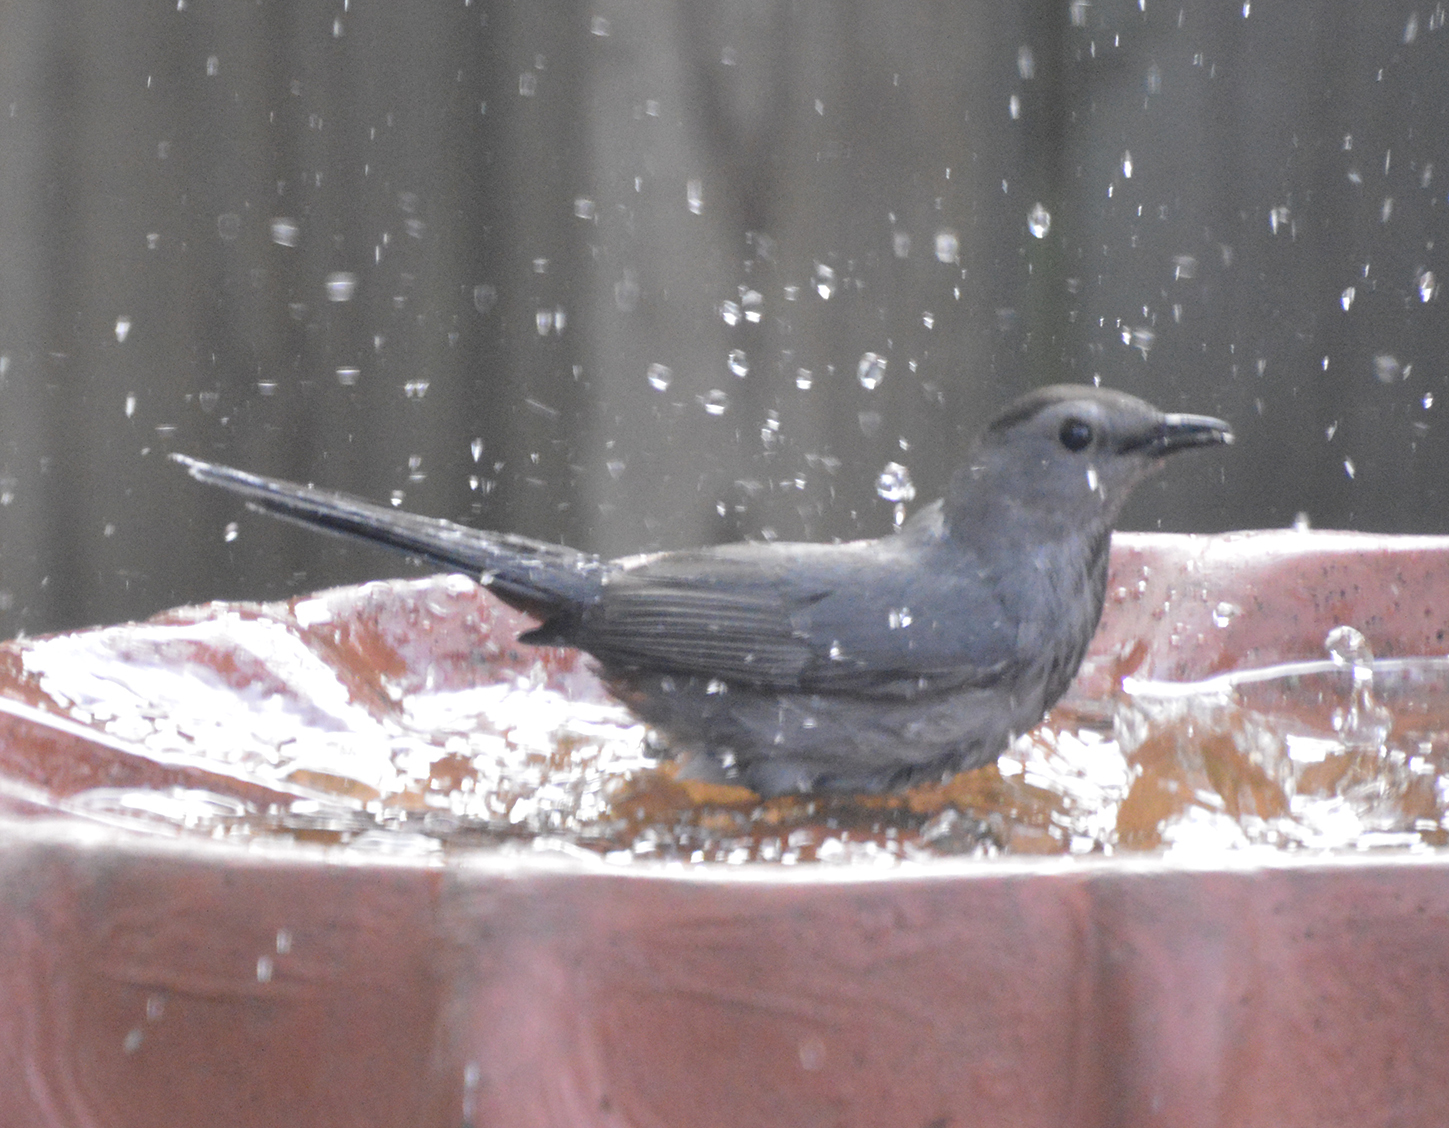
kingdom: Animalia
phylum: Chordata
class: Aves
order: Passeriformes
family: Mimidae
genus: Dumetella
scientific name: Dumetella carolinensis
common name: Gray catbird
